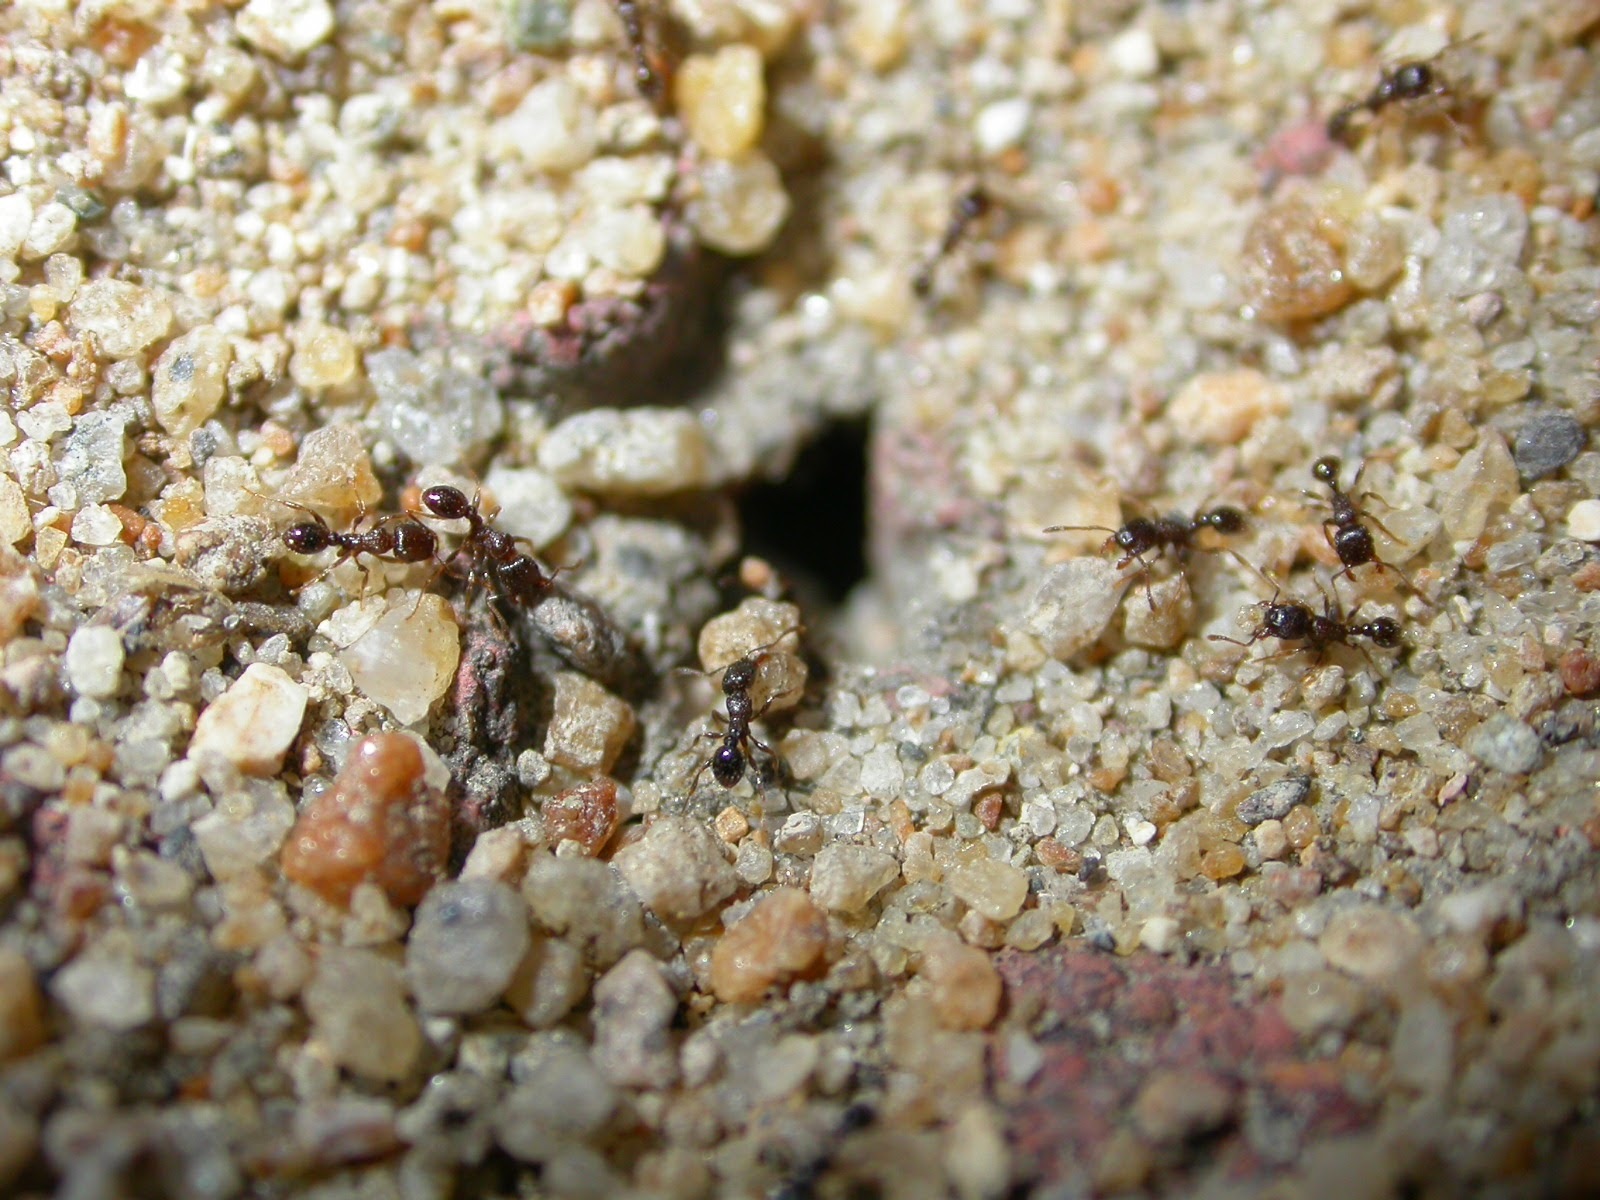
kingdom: Animalia
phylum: Arthropoda
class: Insecta
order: Hymenoptera
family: Formicidae
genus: Tetramorium
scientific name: Tetramorium tsushimae
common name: Ant
